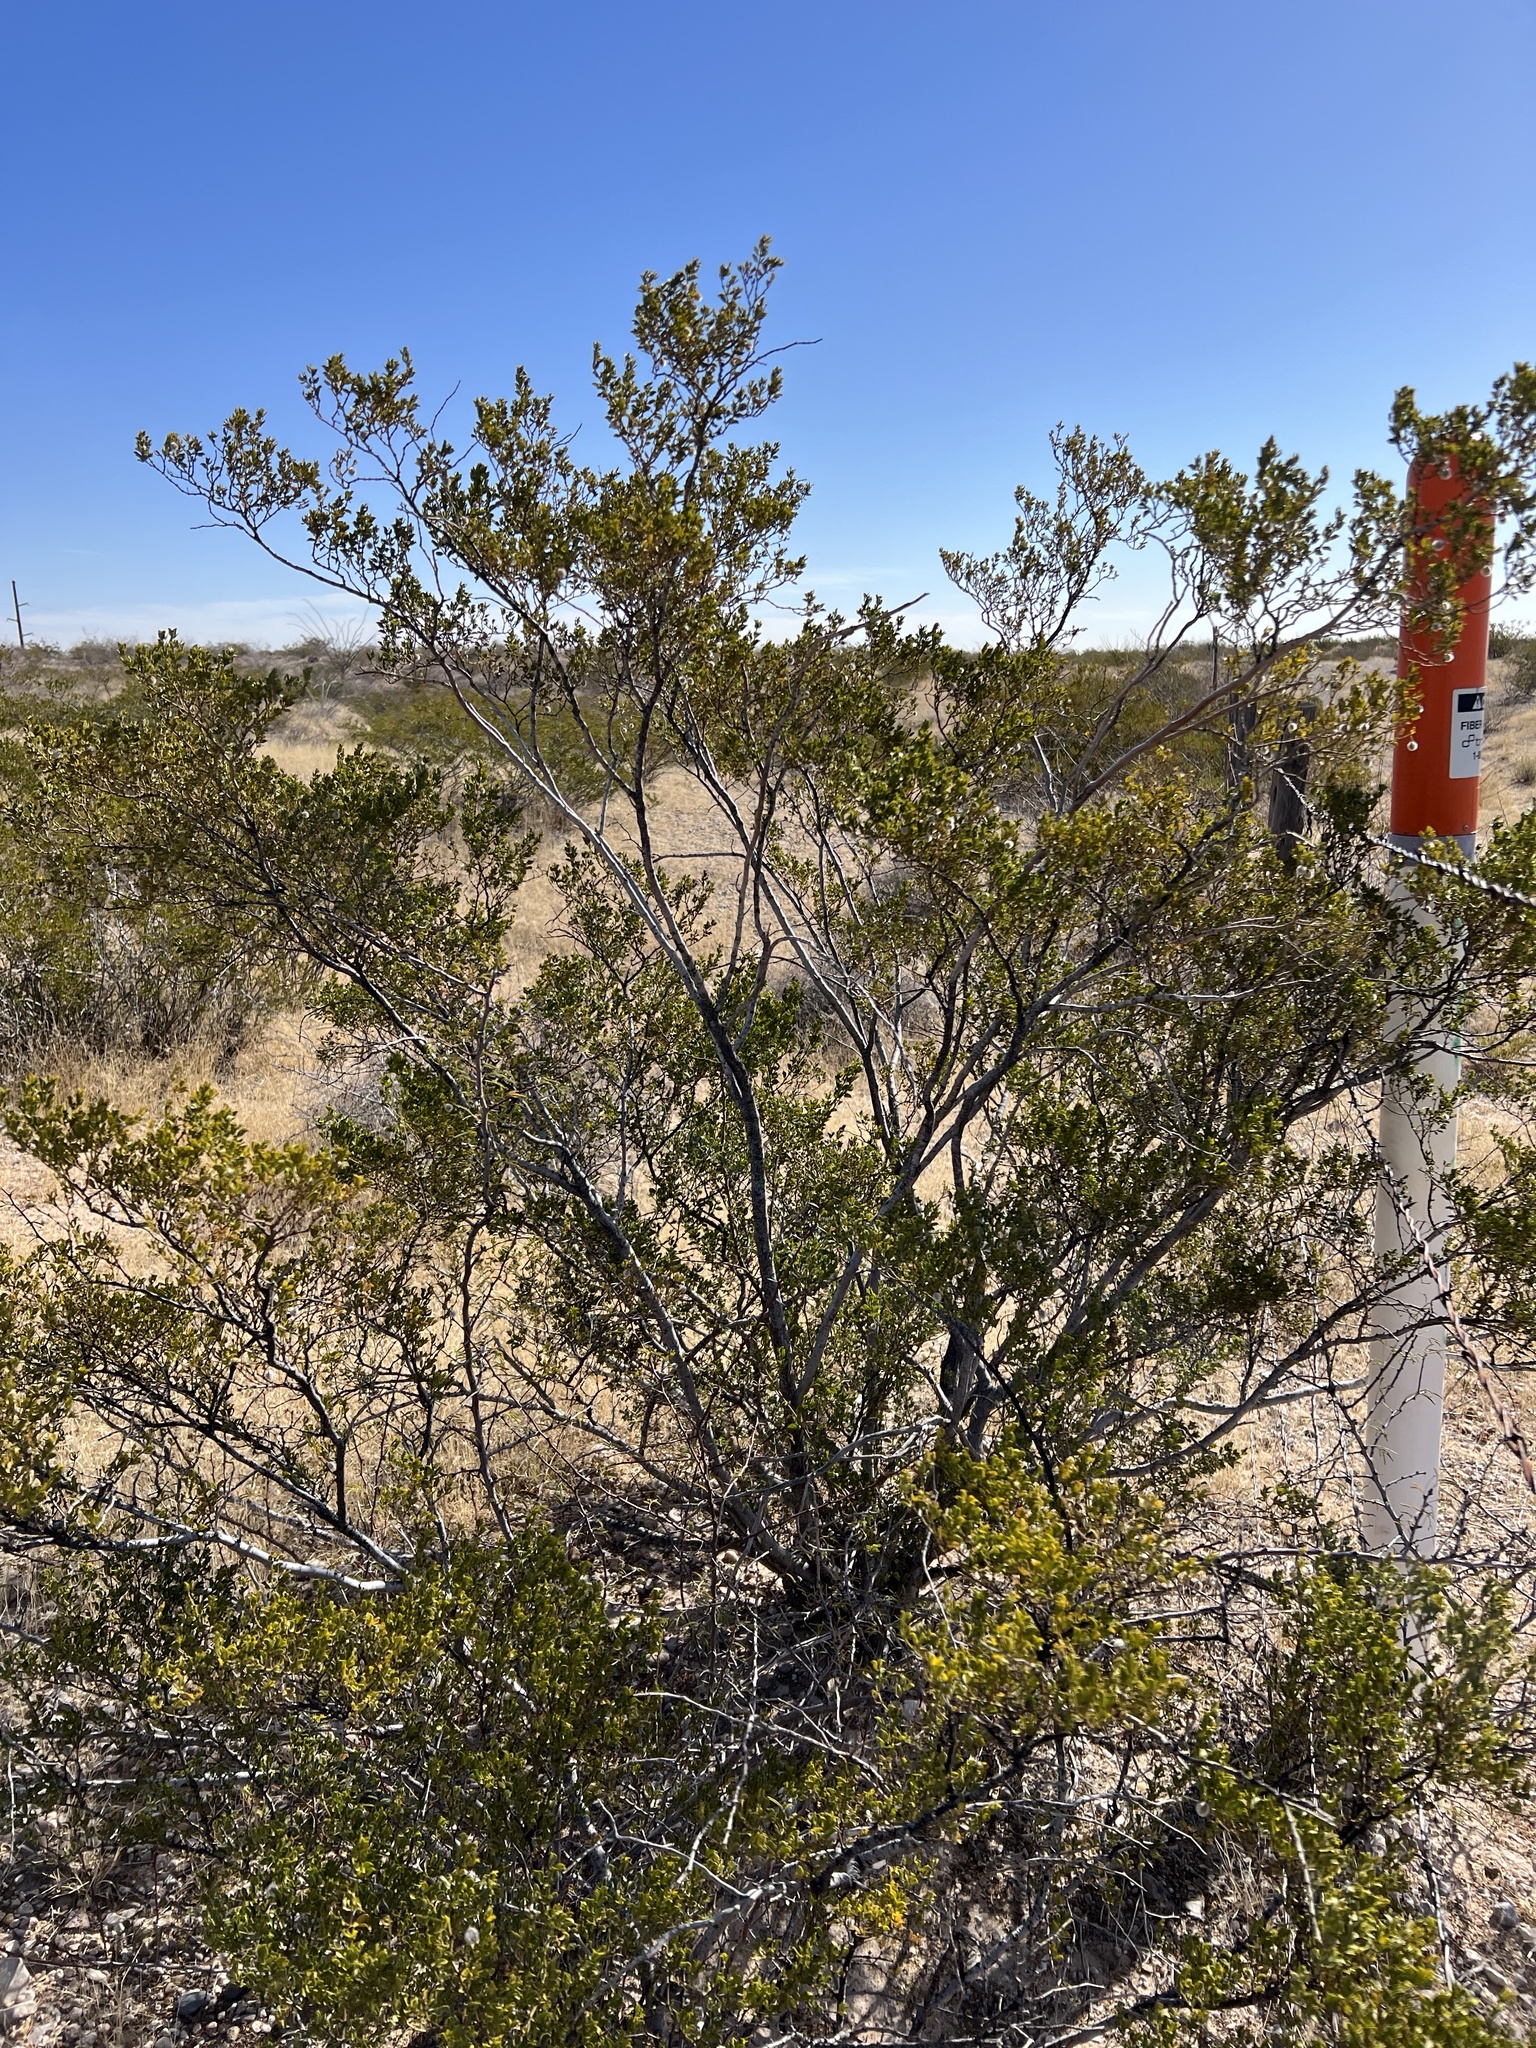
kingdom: Plantae
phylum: Tracheophyta
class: Magnoliopsida
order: Zygophyllales
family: Zygophyllaceae
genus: Larrea
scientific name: Larrea tridentata
